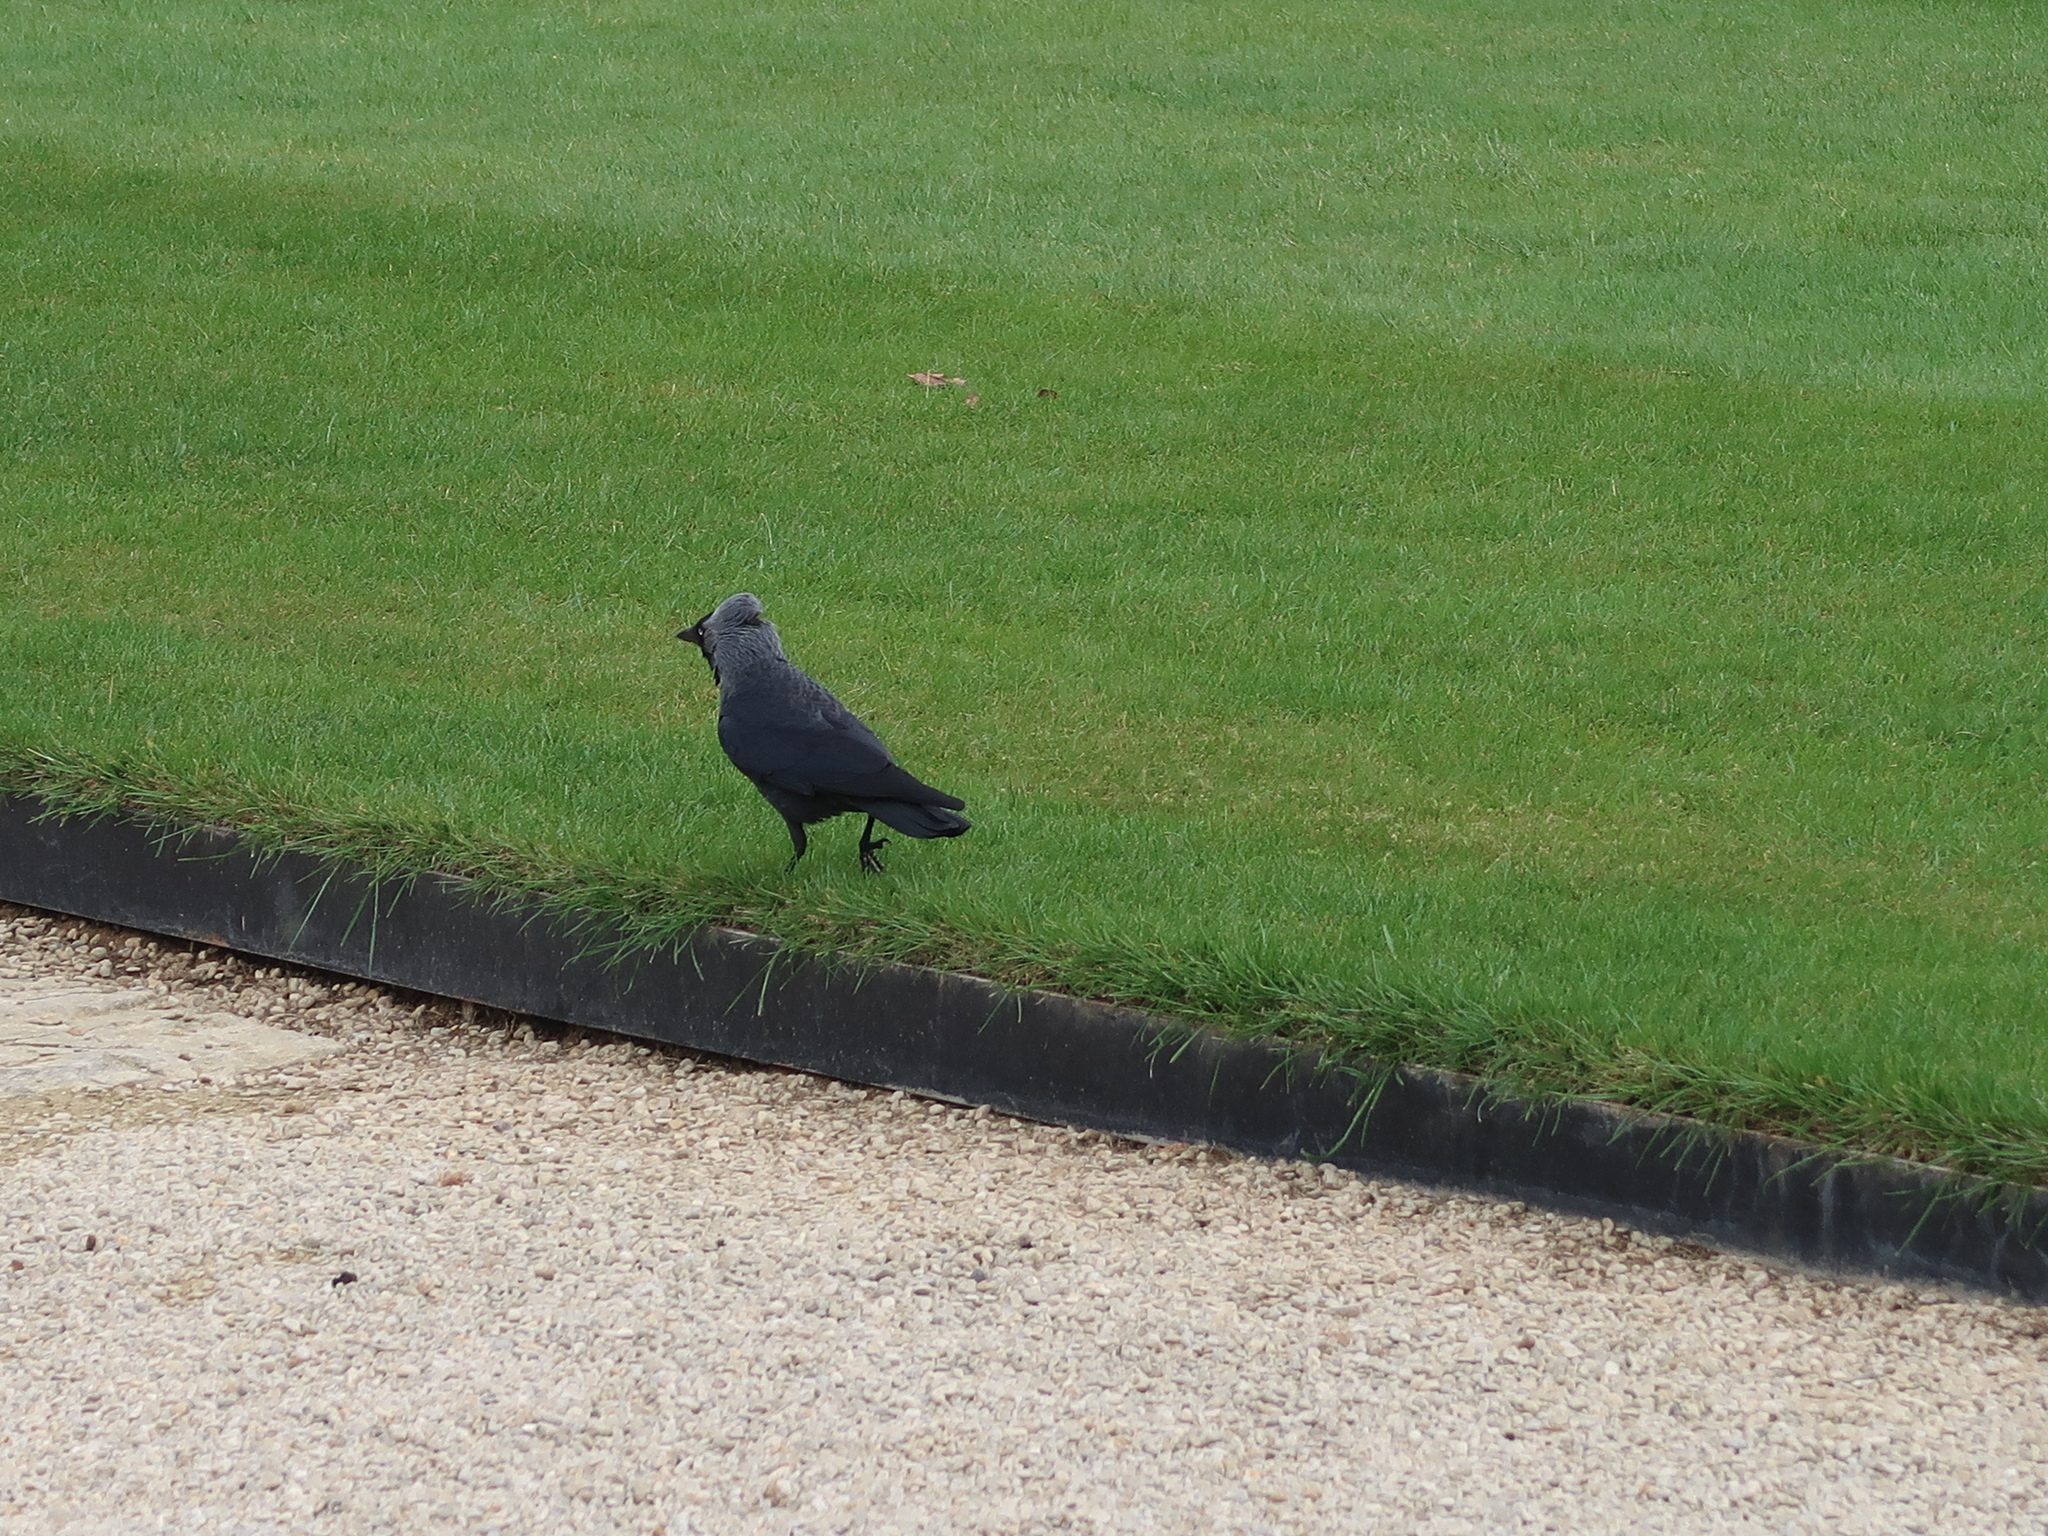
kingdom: Animalia
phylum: Chordata
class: Aves
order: Passeriformes
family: Corvidae
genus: Coloeus
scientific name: Coloeus monedula
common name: Western jackdaw
